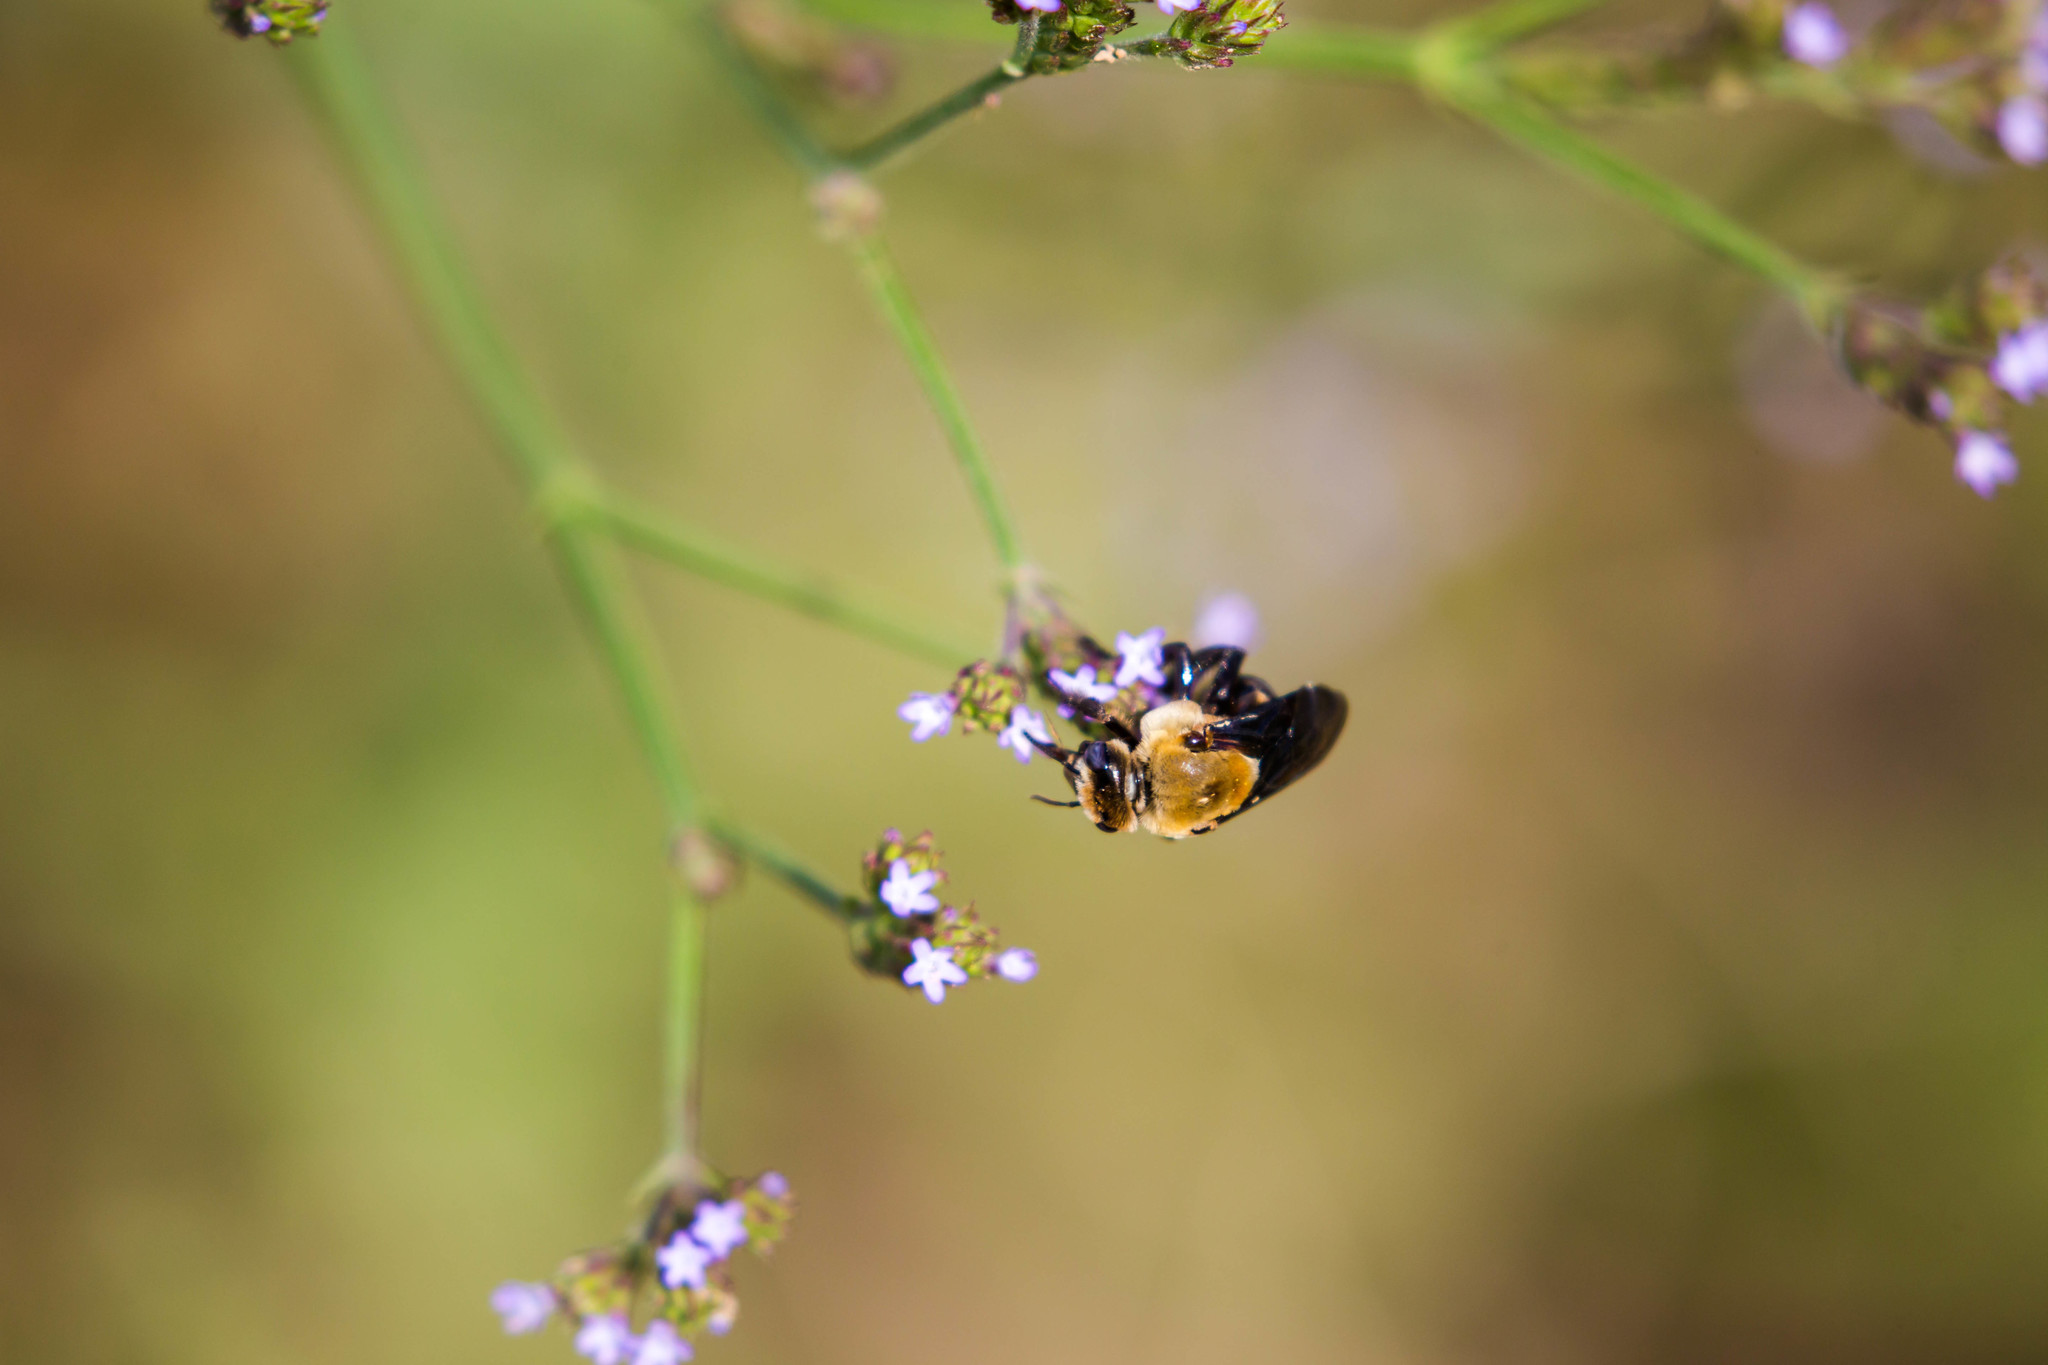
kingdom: Animalia
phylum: Arthropoda
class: Insecta
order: Hymenoptera
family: Apidae
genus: Ptilothrix
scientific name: Ptilothrix bombiformis
